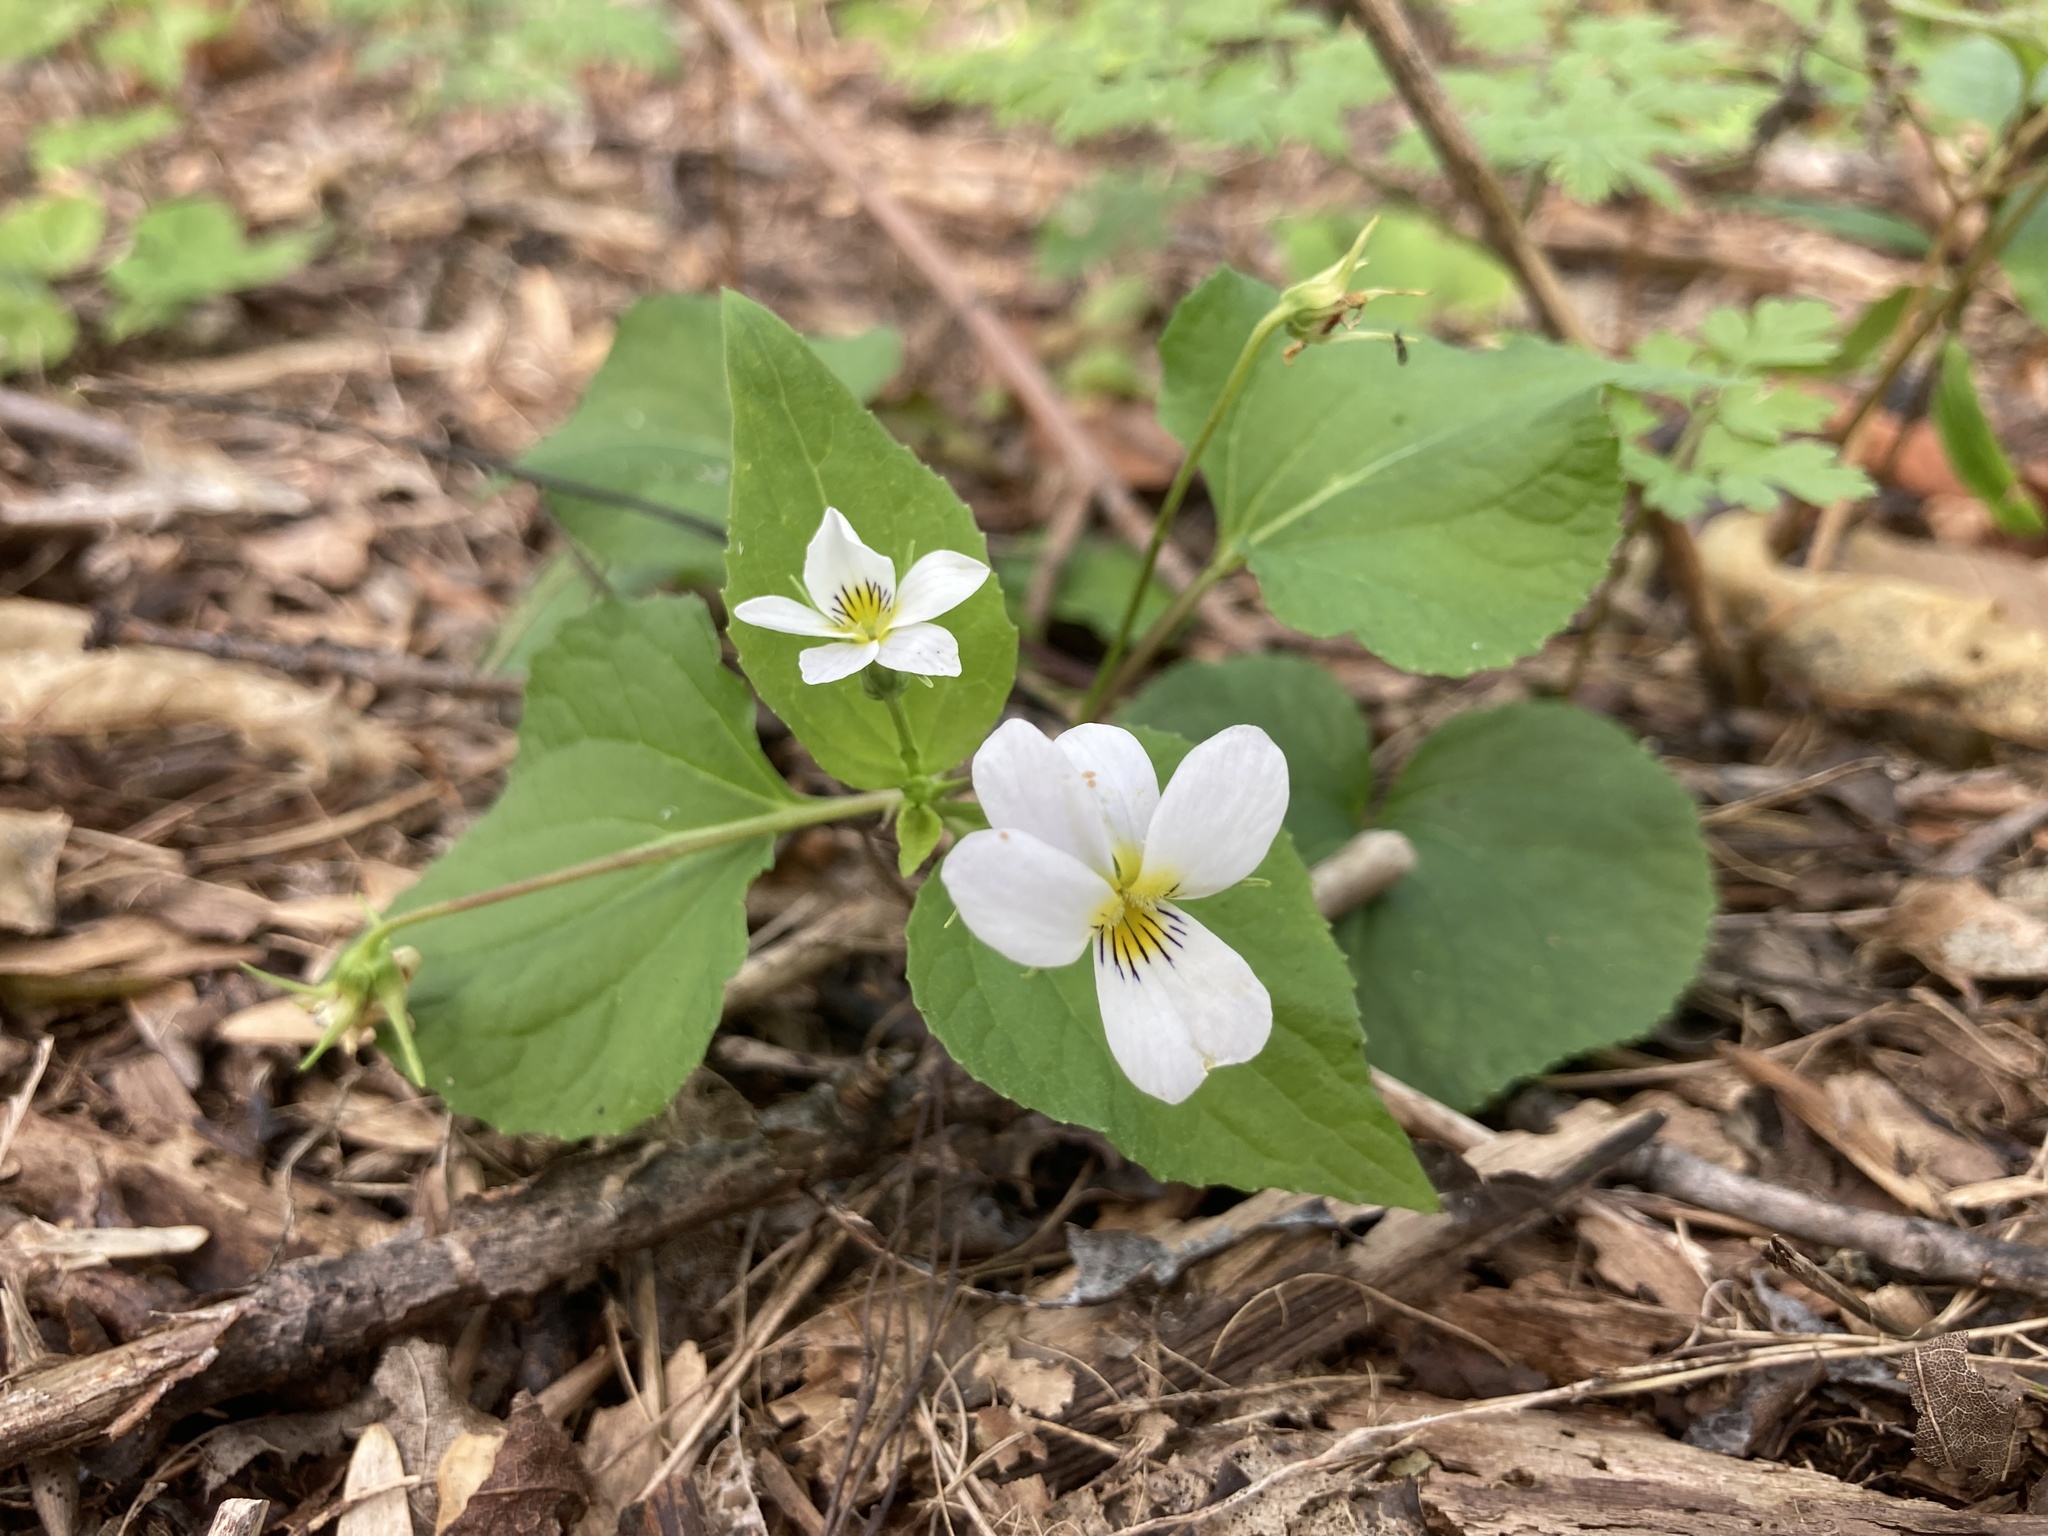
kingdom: Plantae
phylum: Tracheophyta
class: Magnoliopsida
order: Malpighiales
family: Violaceae
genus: Viola
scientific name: Viola canadensis
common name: Canada violet
